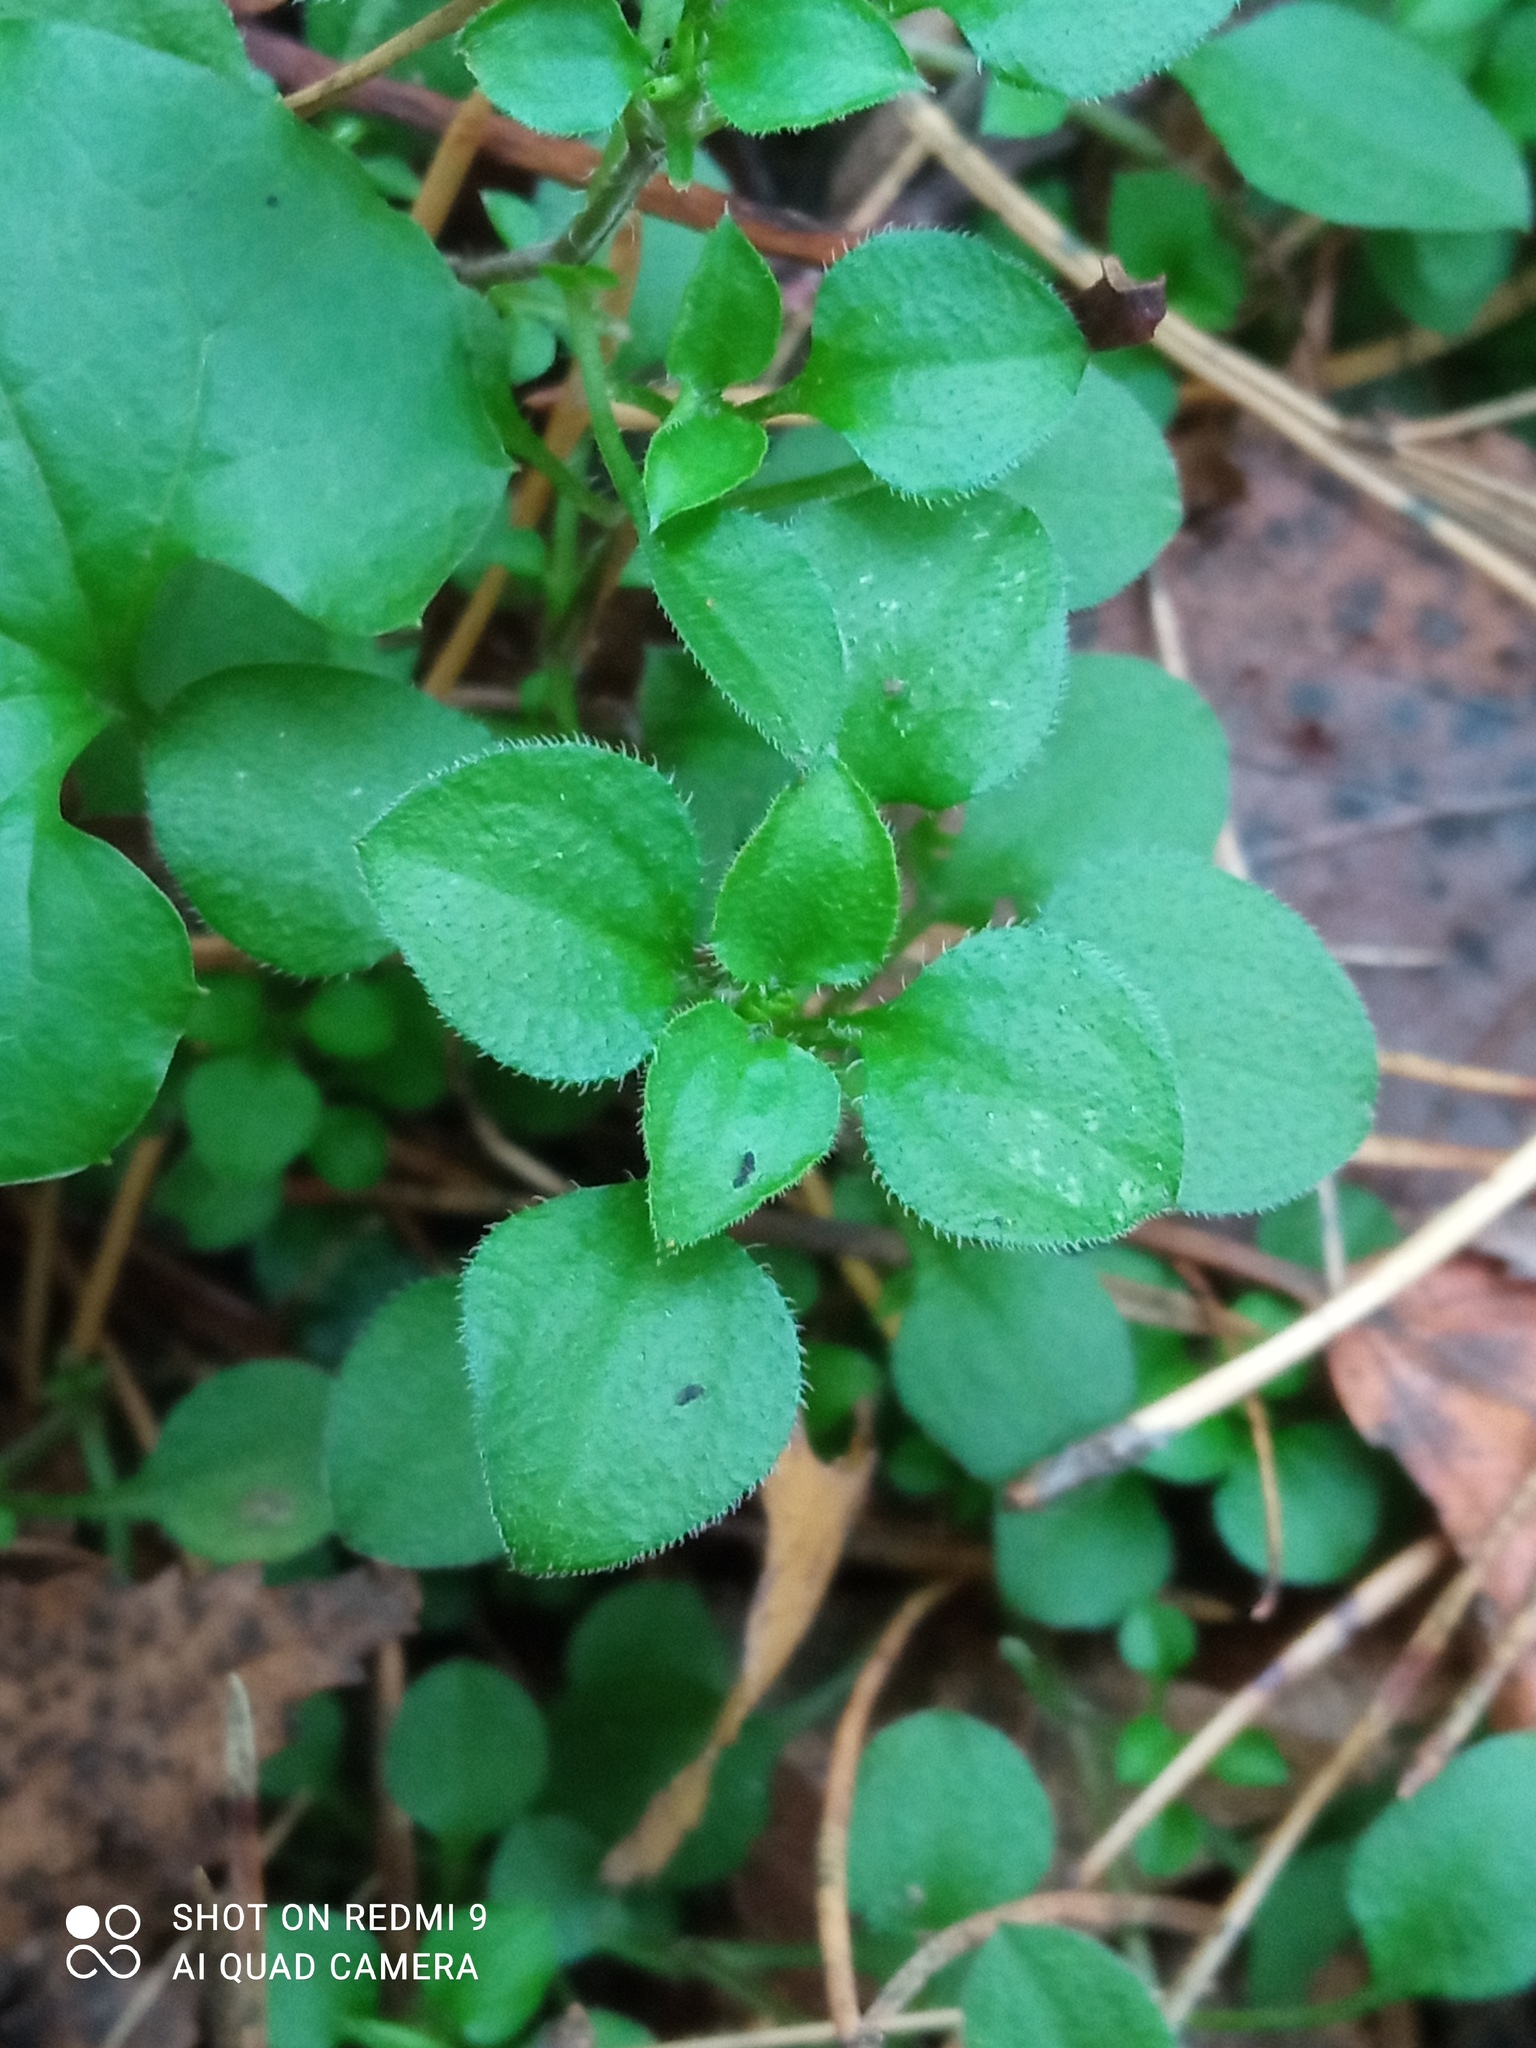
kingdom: Plantae
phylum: Tracheophyta
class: Magnoliopsida
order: Caryophyllales
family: Caryophyllaceae
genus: Moehringia
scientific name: Moehringia trinervia
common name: Three-nerved sandwort
